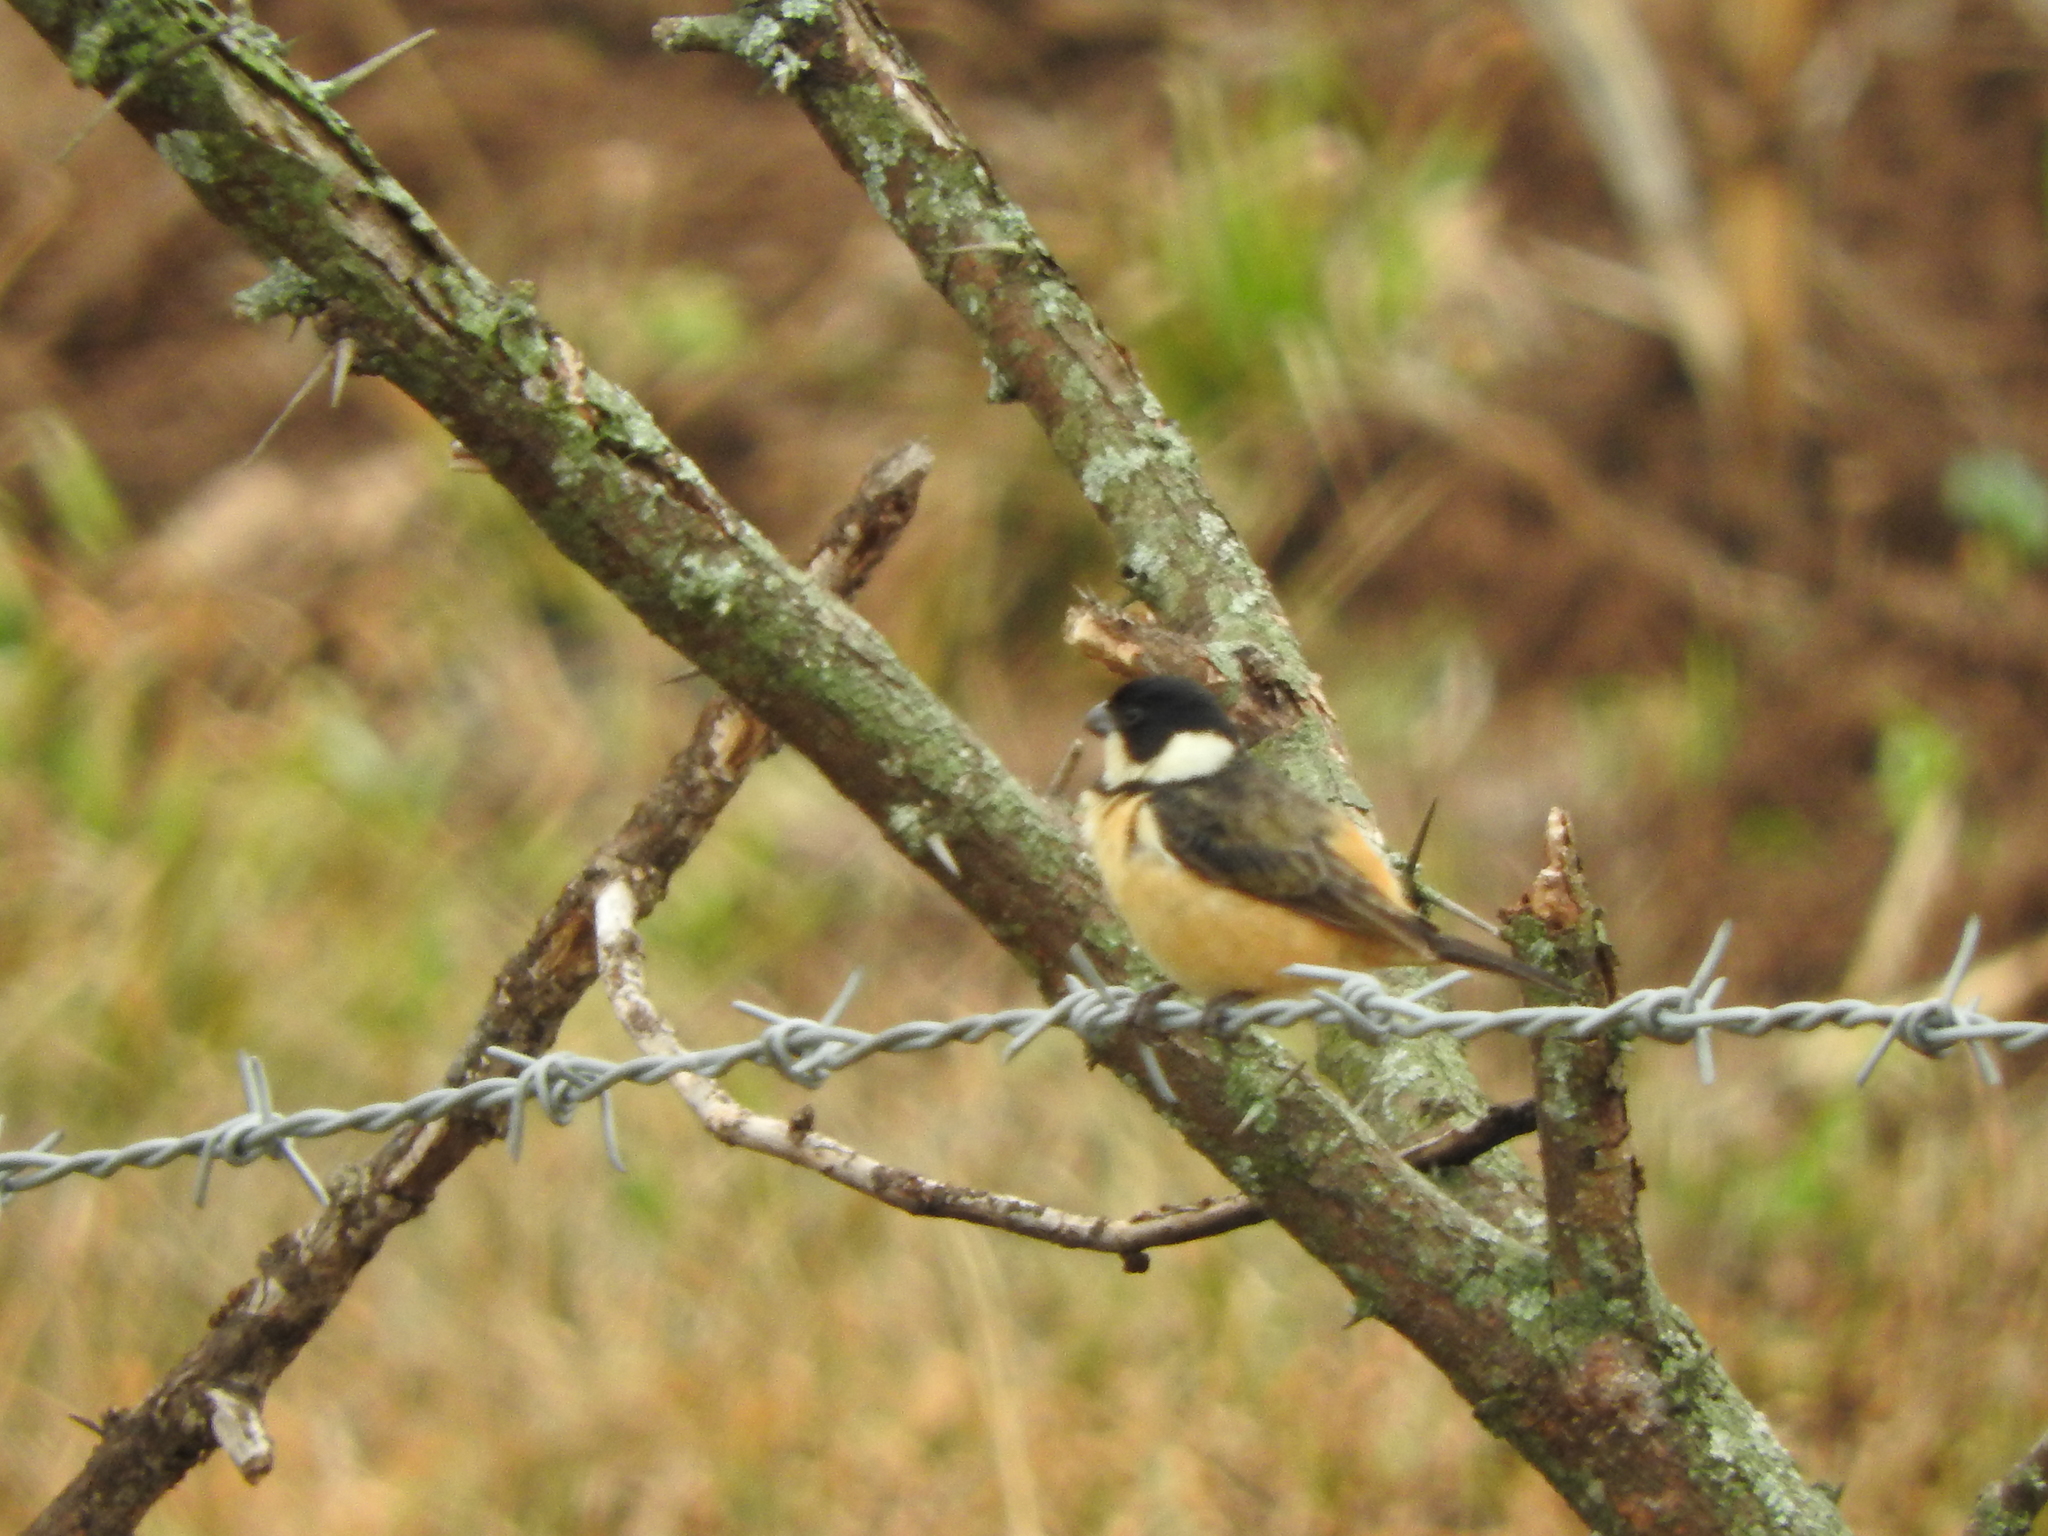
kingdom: Animalia
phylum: Chordata
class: Aves
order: Passeriformes
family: Thraupidae
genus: Sporophila
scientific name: Sporophila torqueola
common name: White-collared seedeater
